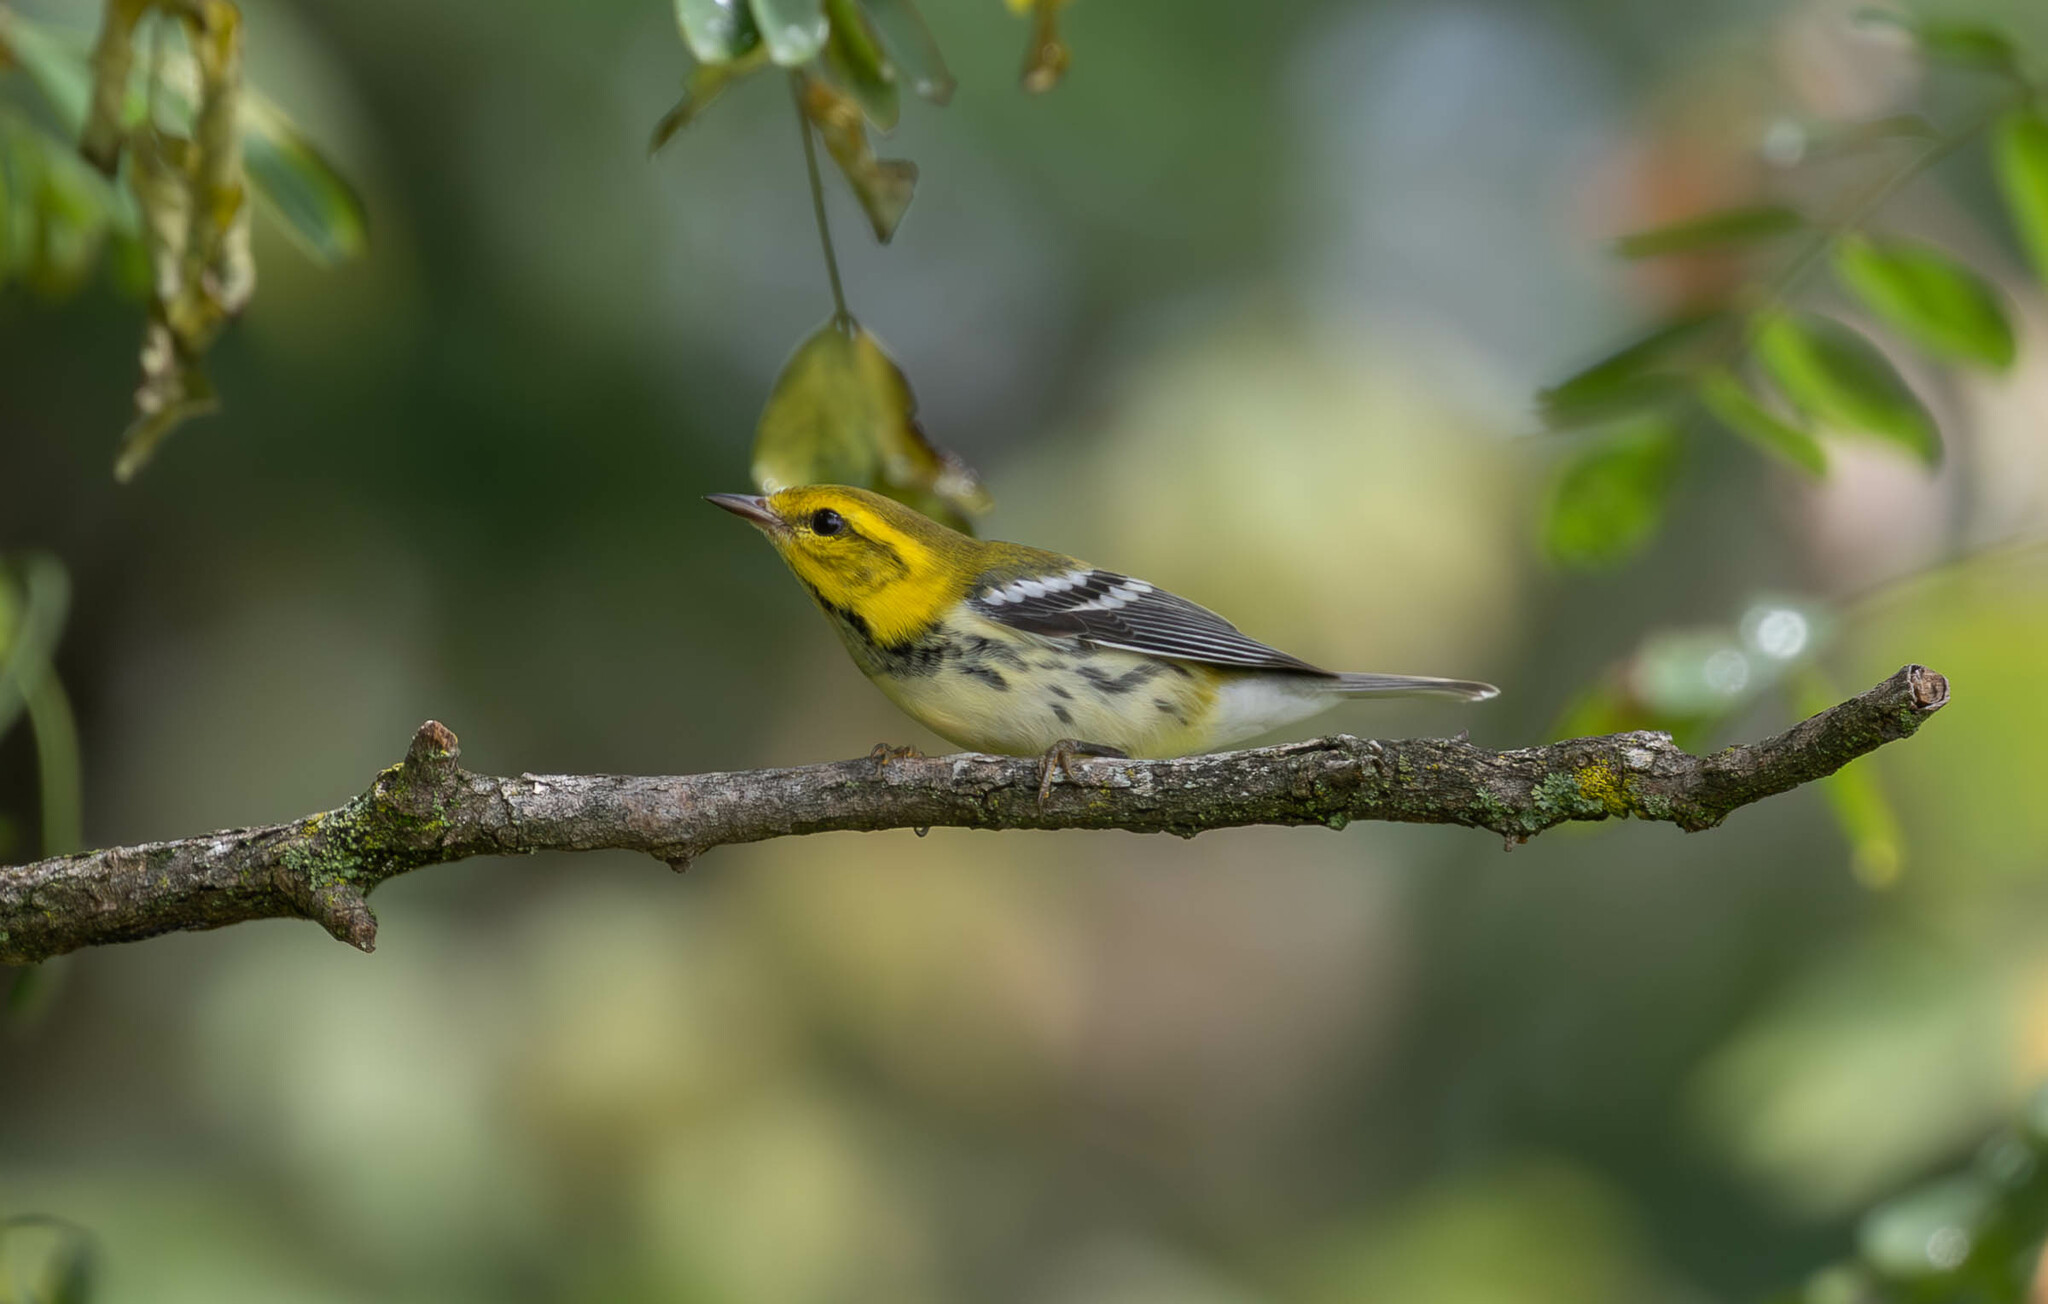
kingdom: Animalia
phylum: Chordata
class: Aves
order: Passeriformes
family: Parulidae
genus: Setophaga
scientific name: Setophaga virens
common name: Black-throated green warbler
